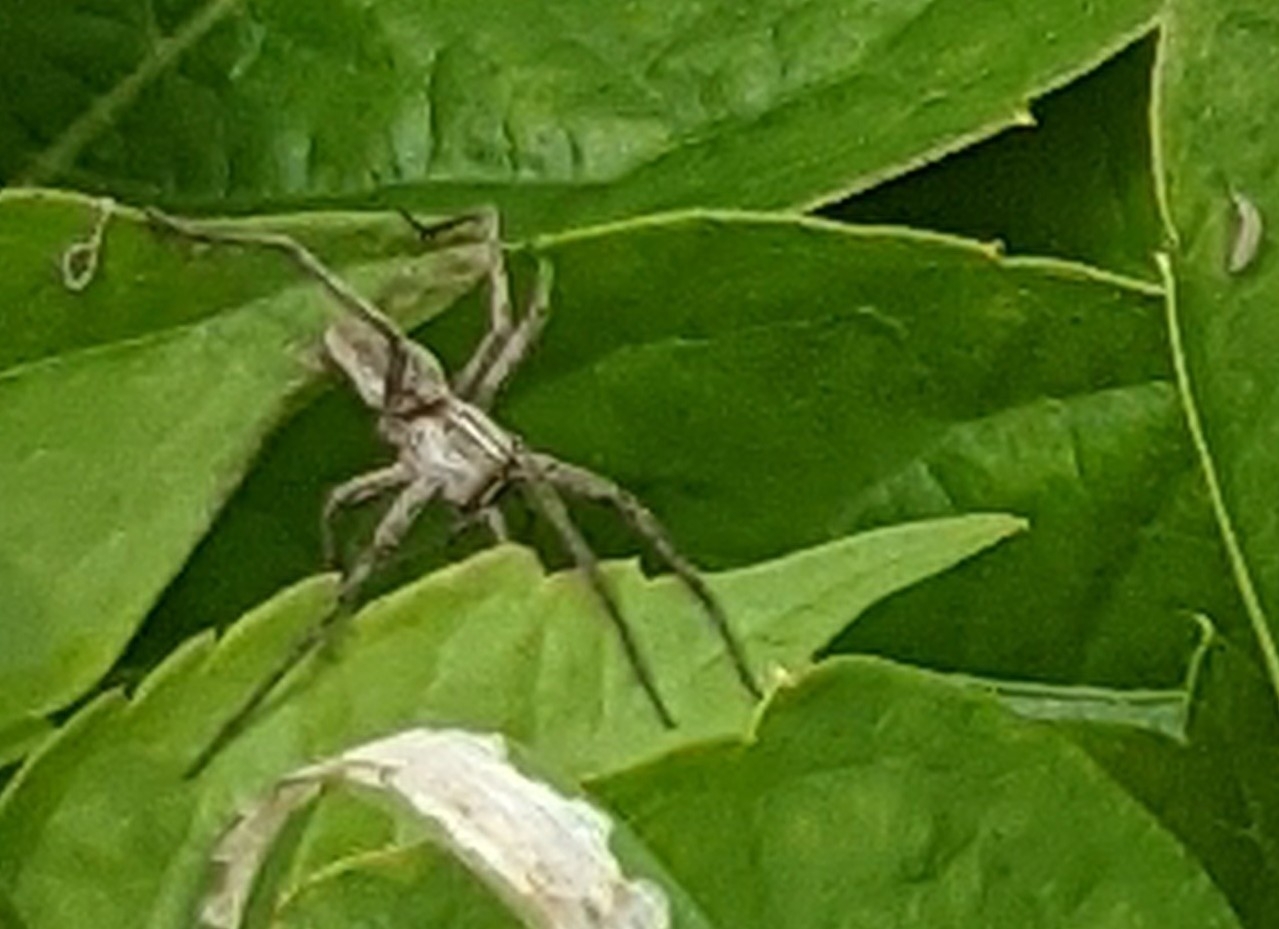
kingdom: Animalia
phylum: Arthropoda
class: Arachnida
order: Araneae
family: Pisauridae
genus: Pisaura
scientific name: Pisaura mirabilis
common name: Tent spider
